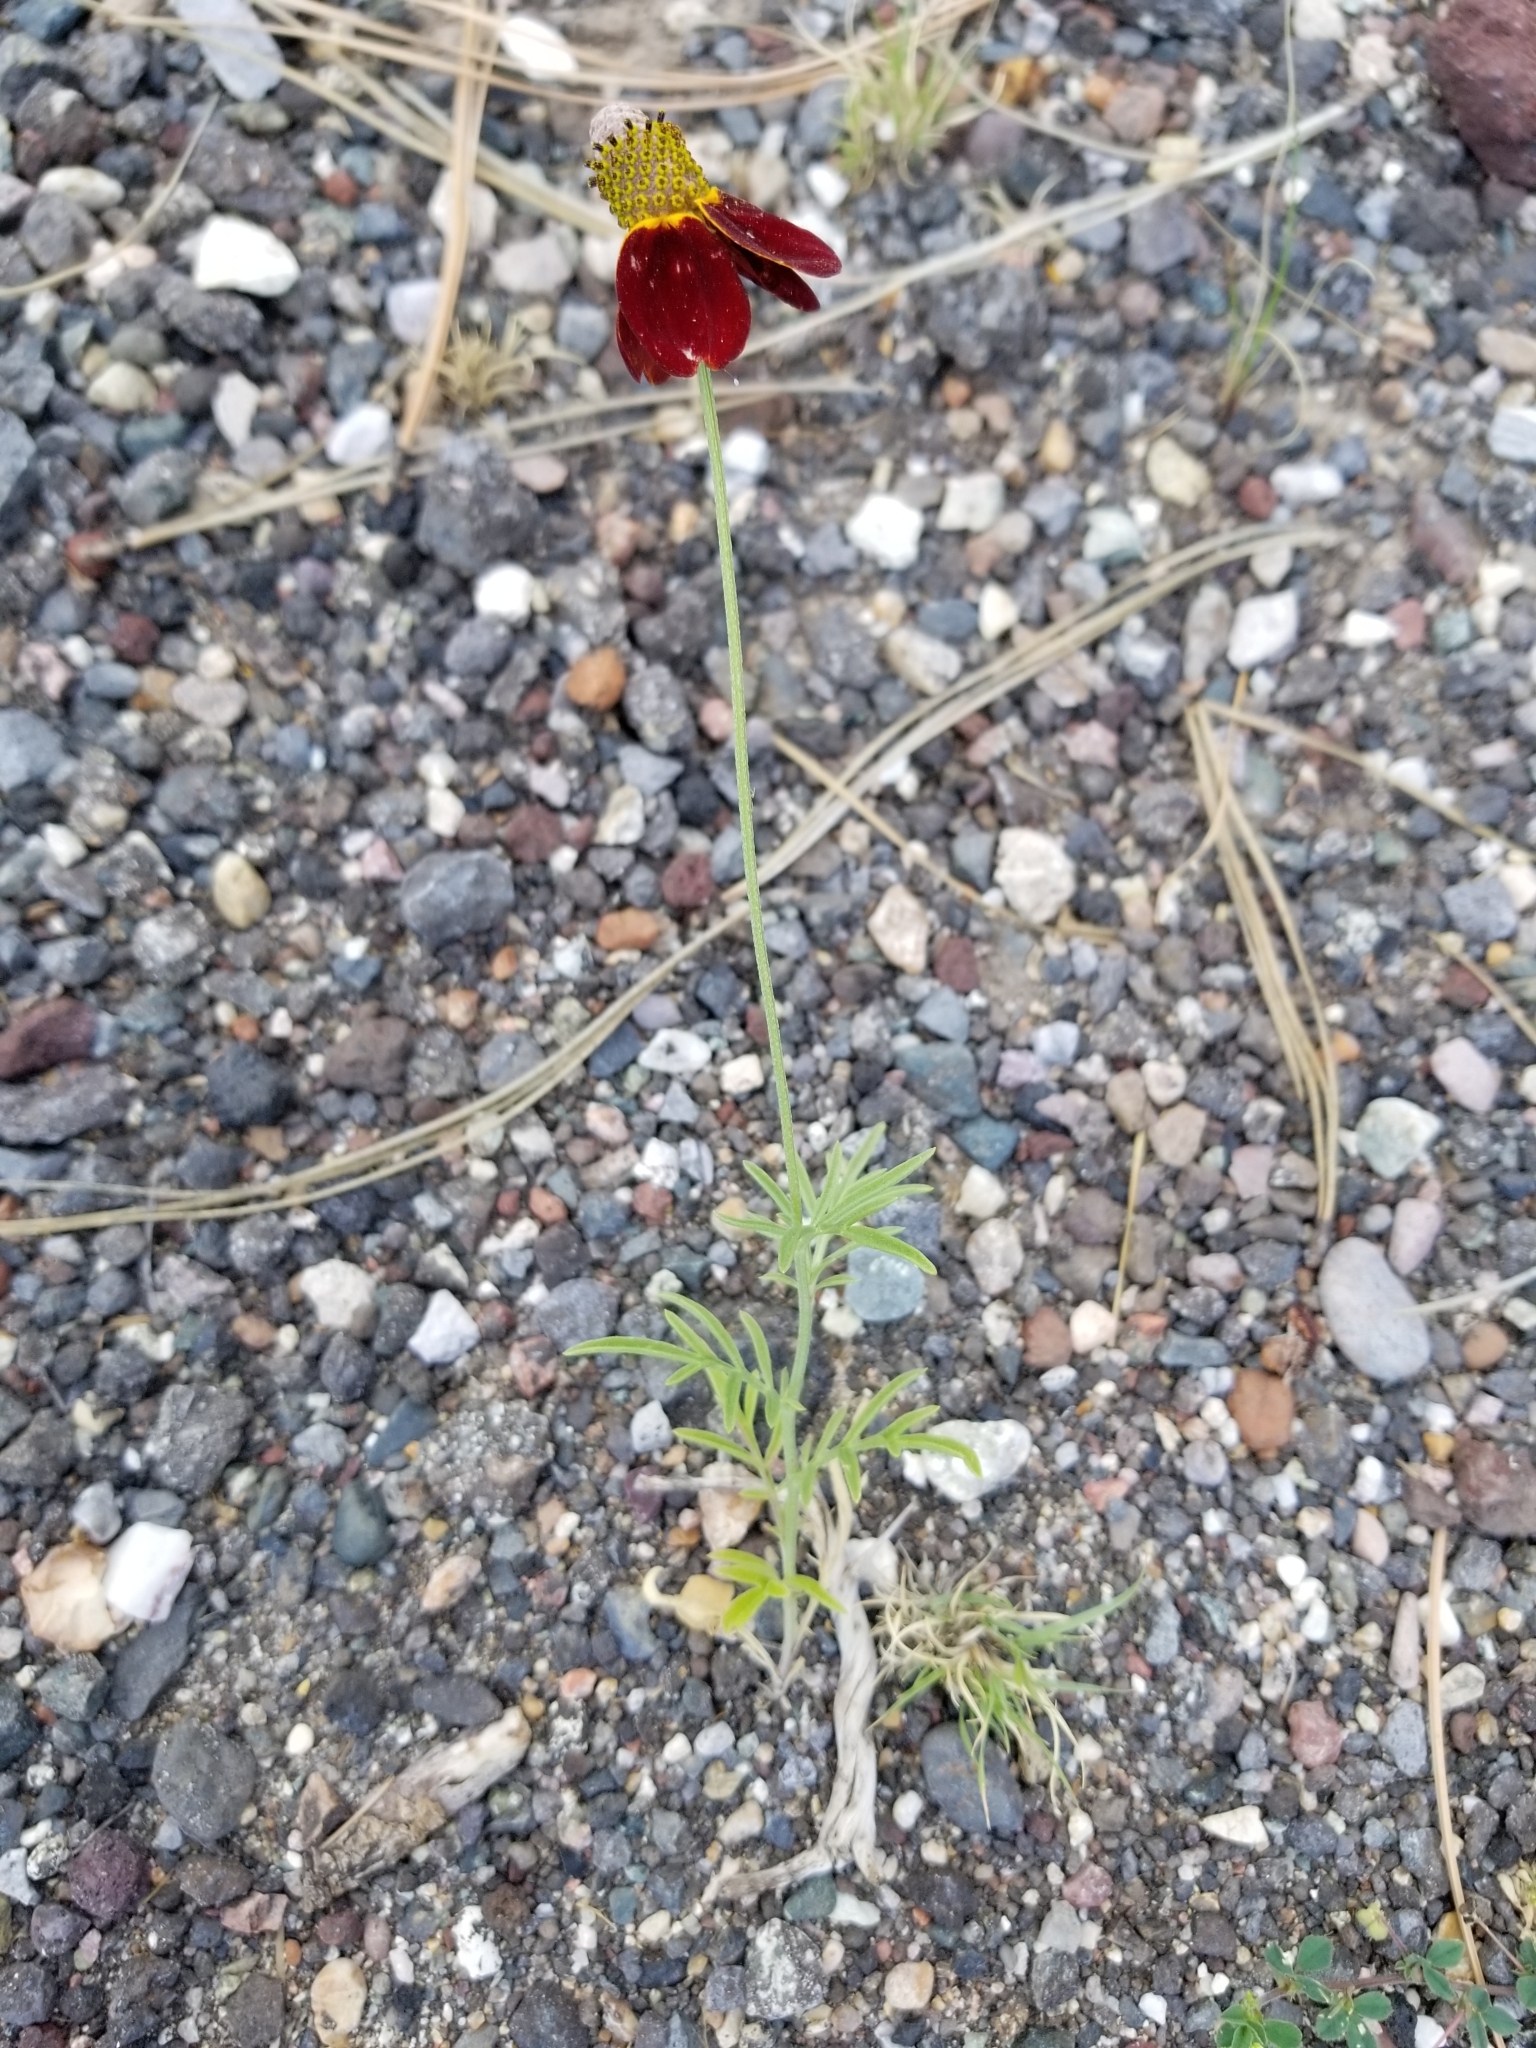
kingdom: Plantae
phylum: Tracheophyta
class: Magnoliopsida
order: Asterales
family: Asteraceae
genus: Ratibida
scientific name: Ratibida columnifera
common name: Prairie coneflower
